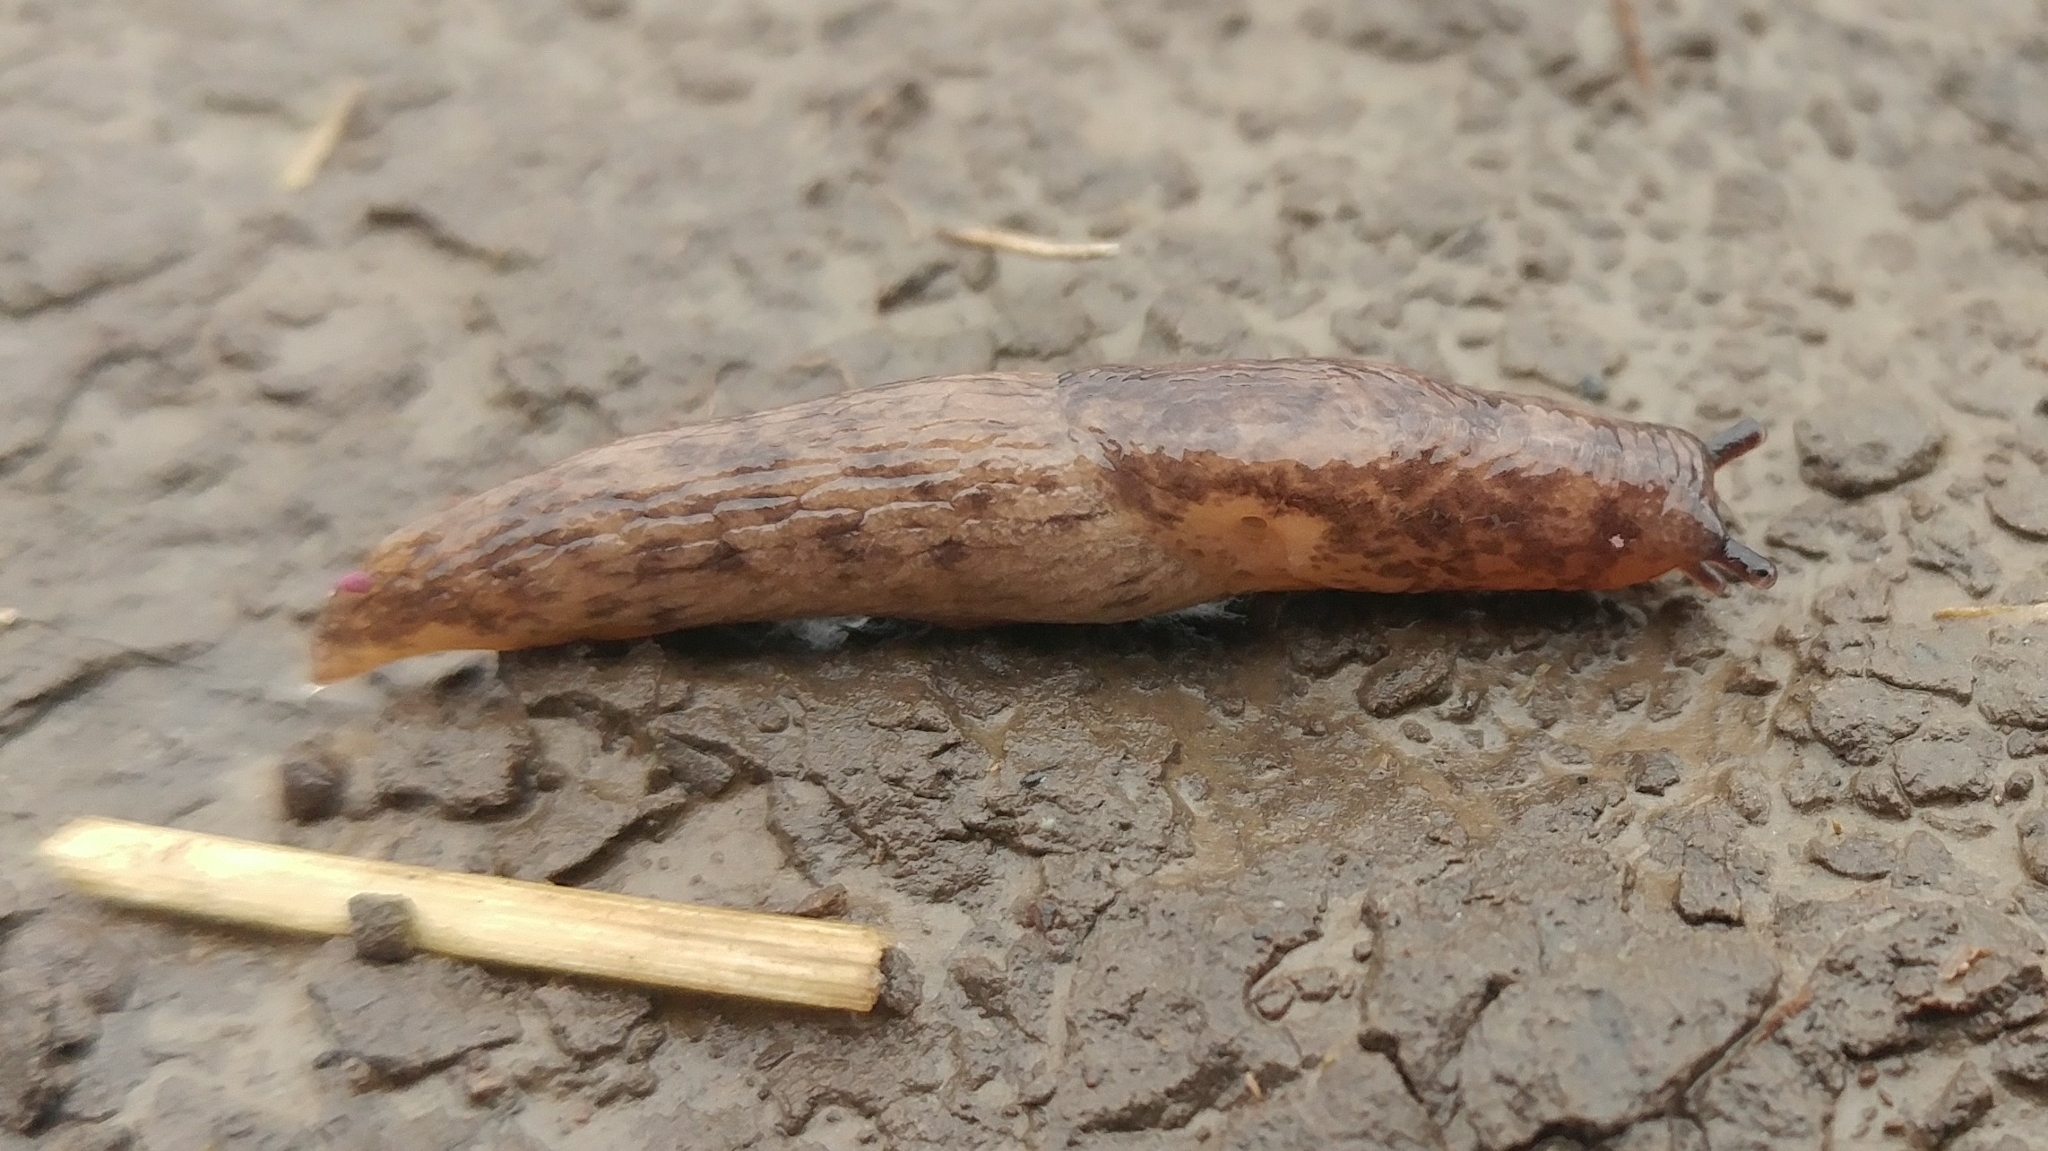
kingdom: Animalia
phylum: Mollusca
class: Gastropoda
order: Stylommatophora
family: Agriolimacidae
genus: Deroceras
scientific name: Deroceras reticulatum
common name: Gray field slug
